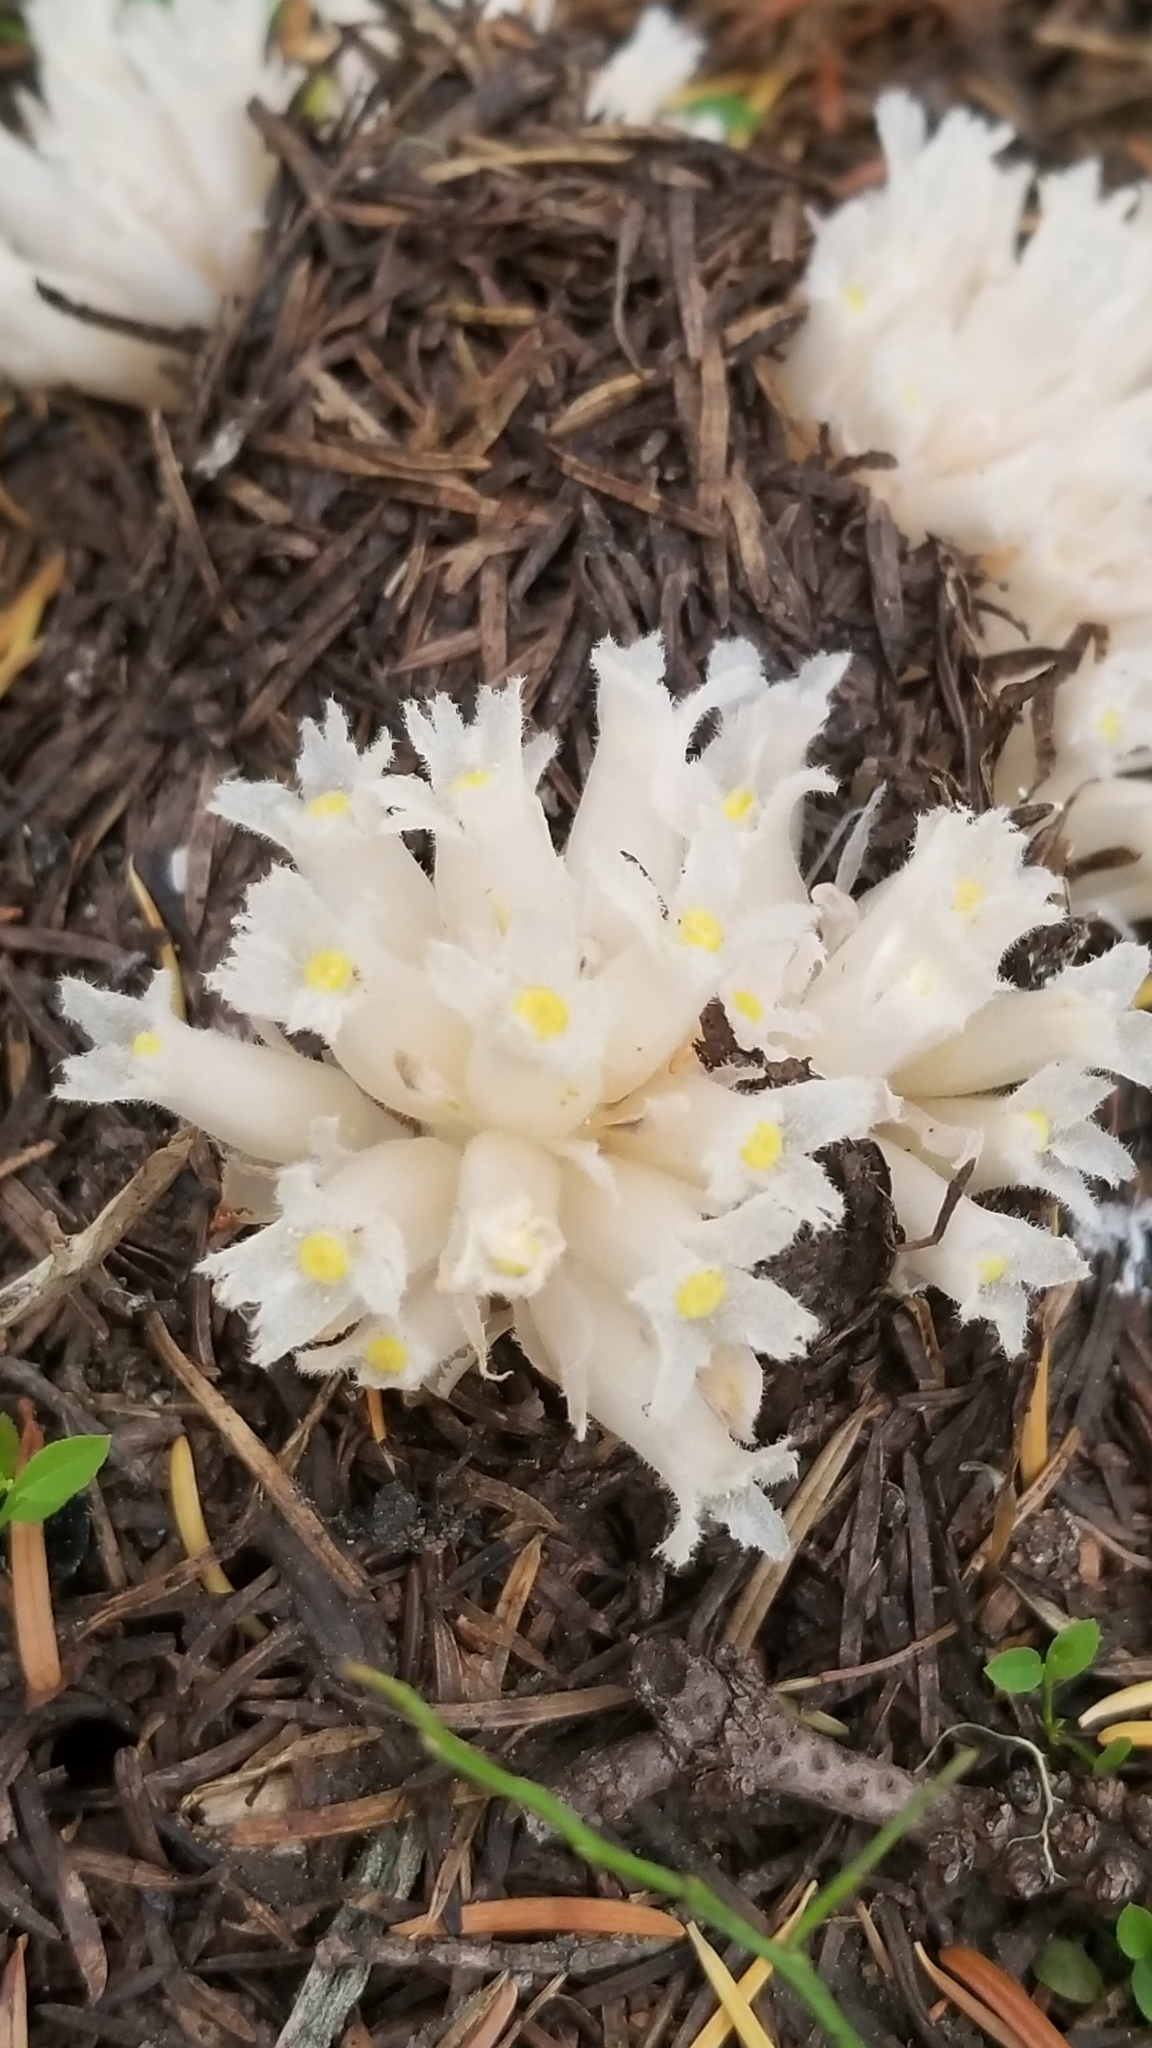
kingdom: Plantae
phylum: Tracheophyta
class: Magnoliopsida
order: Ericales
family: Ericaceae
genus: Hemitomes
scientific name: Hemitomes congestum
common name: Cone plant
